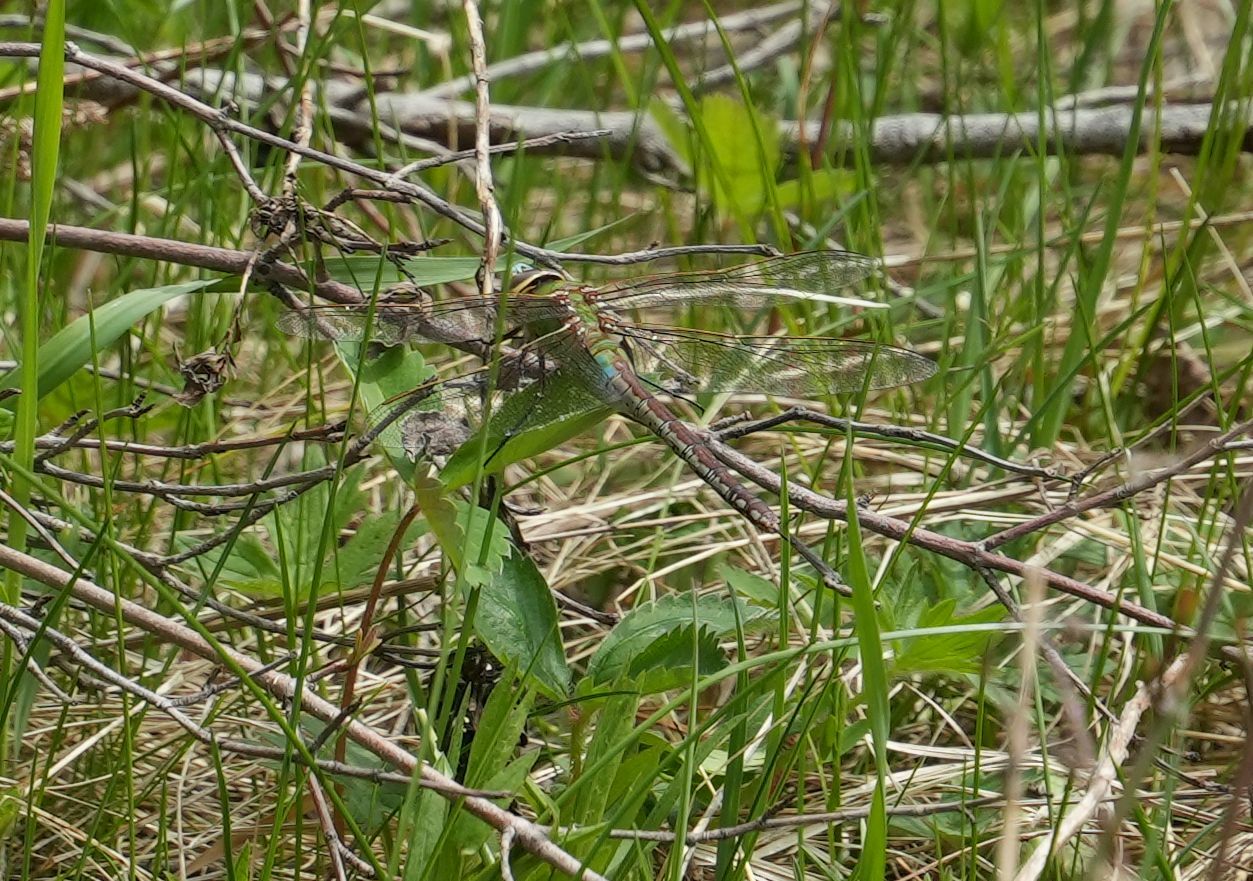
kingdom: Animalia
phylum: Arthropoda
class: Insecta
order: Odonata
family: Aeshnidae
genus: Anax
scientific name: Anax junius
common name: Common green darner
